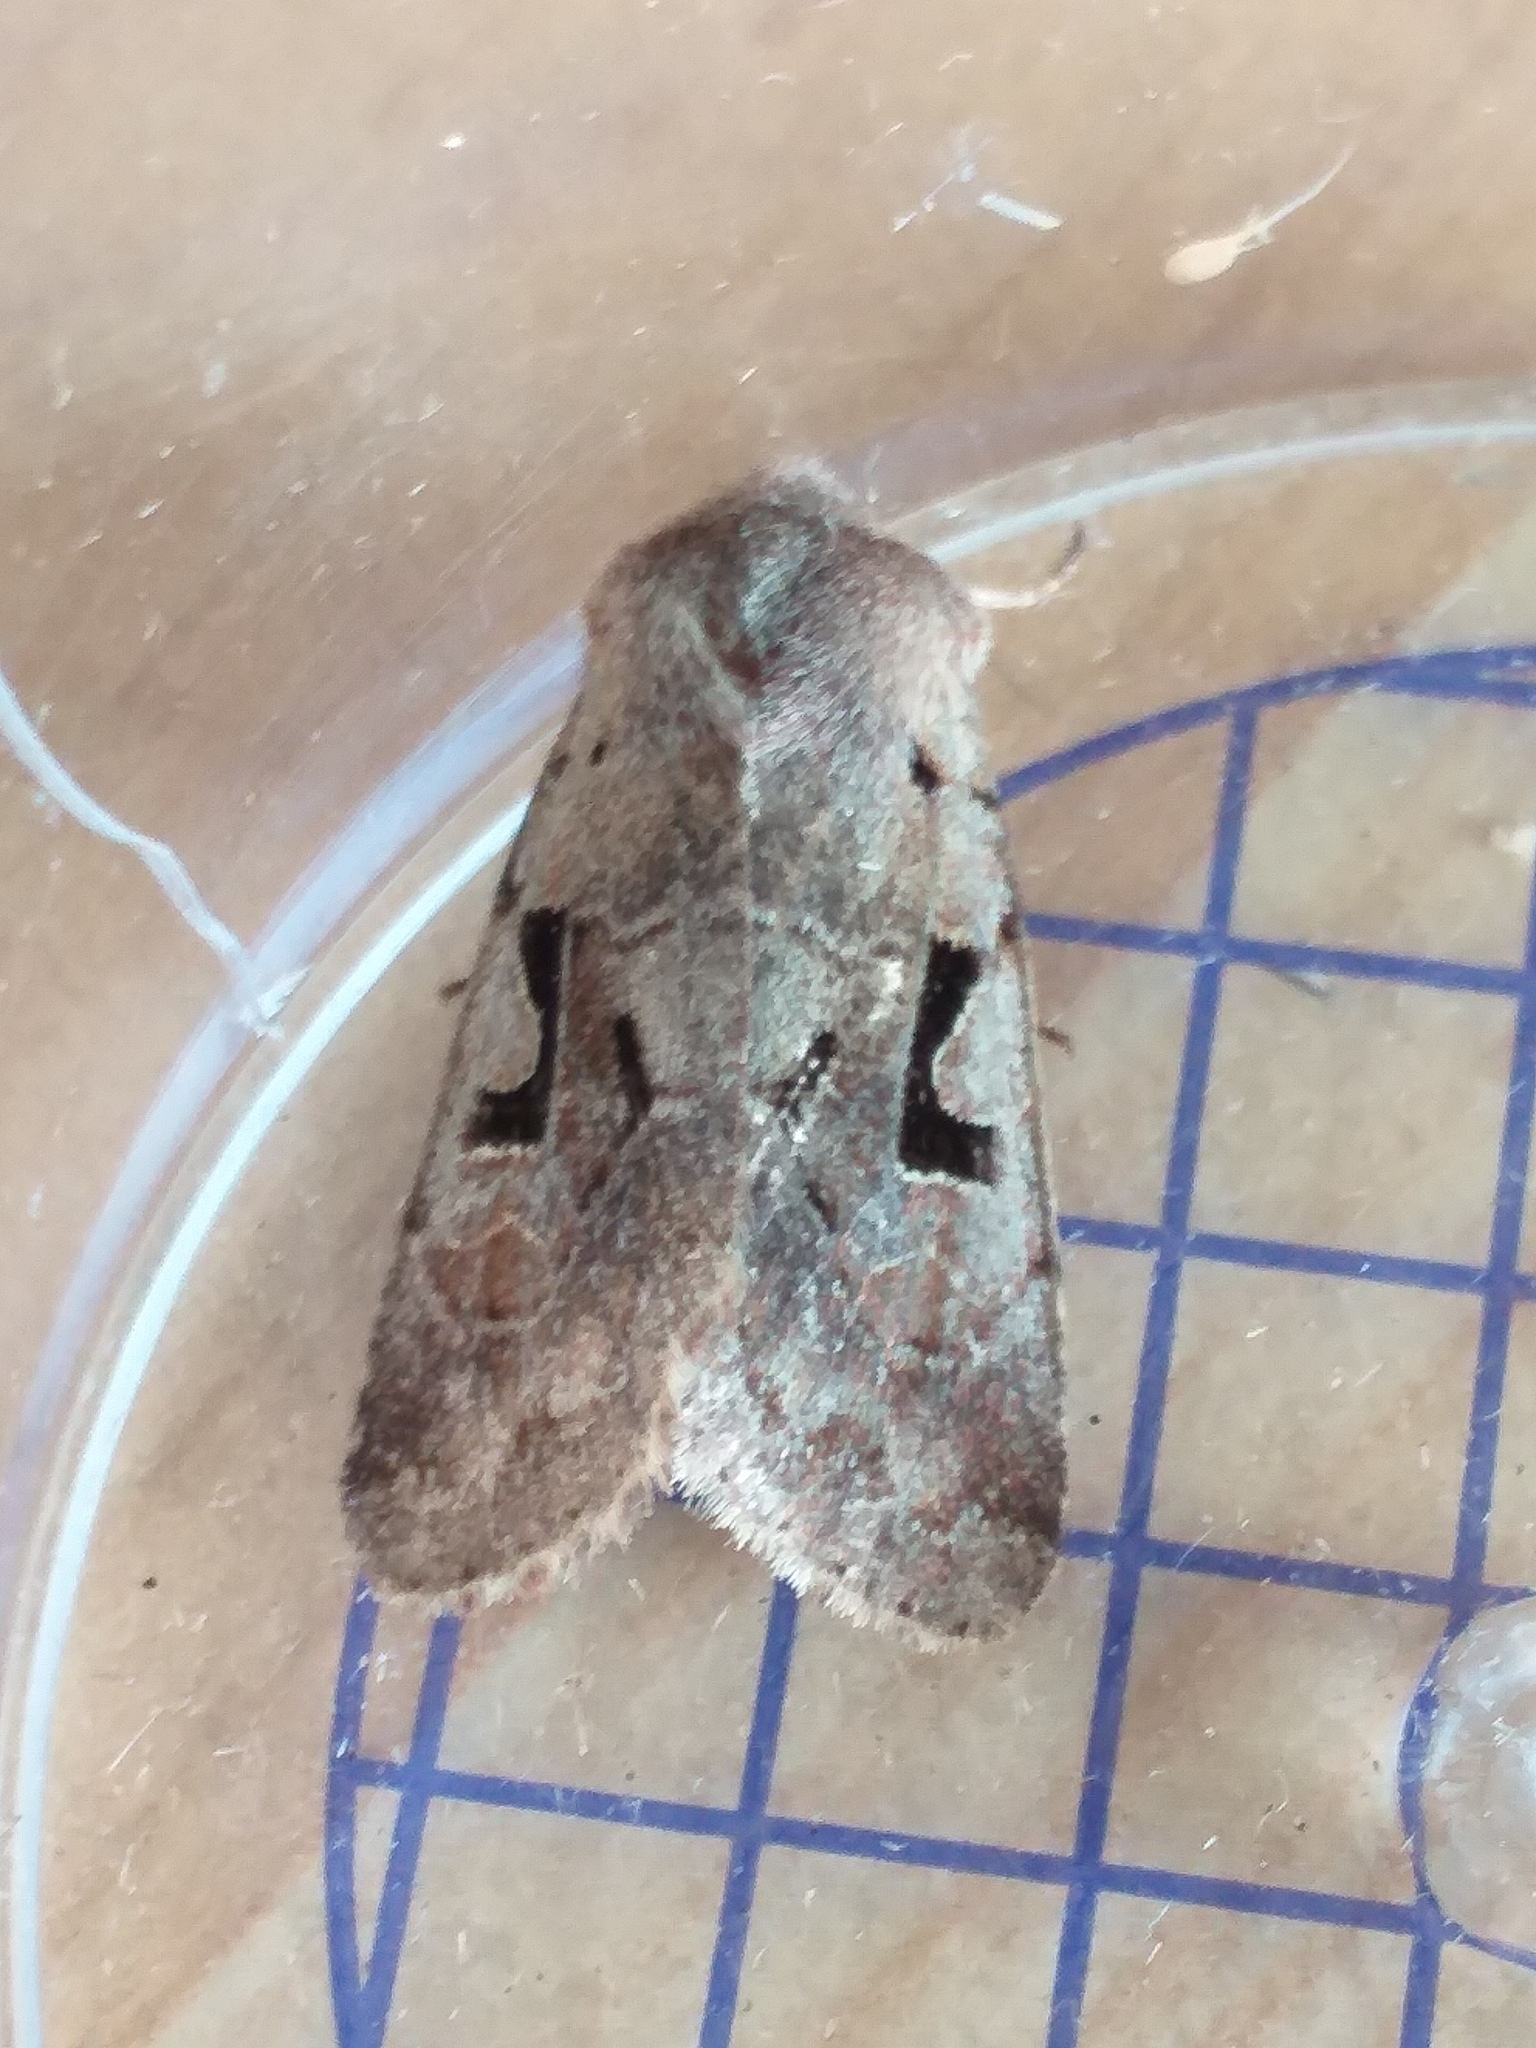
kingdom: Animalia
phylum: Arthropoda
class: Insecta
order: Lepidoptera
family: Noctuidae
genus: Orthosia
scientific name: Orthosia gothica
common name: Hebrew character
